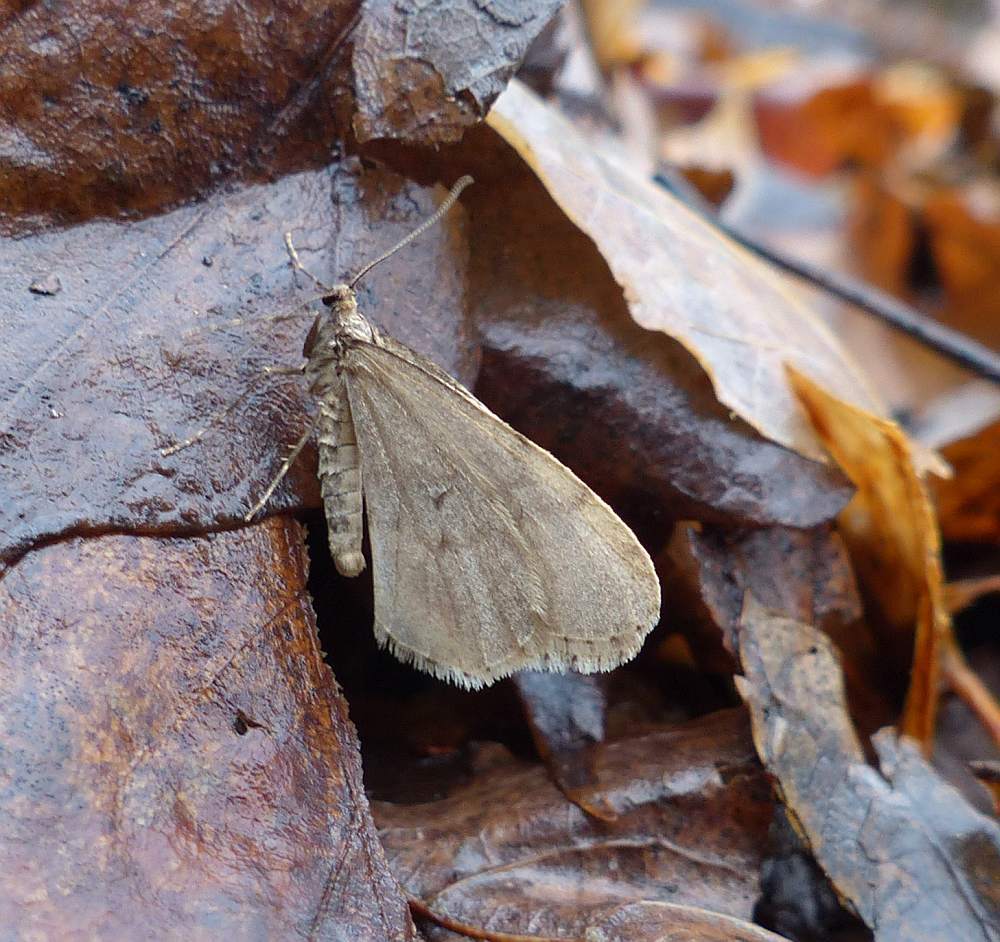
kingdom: Animalia
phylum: Arthropoda
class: Insecta
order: Lepidoptera
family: Geometridae
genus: Operophtera
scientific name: Operophtera bruceata
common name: Bruce spanworm
